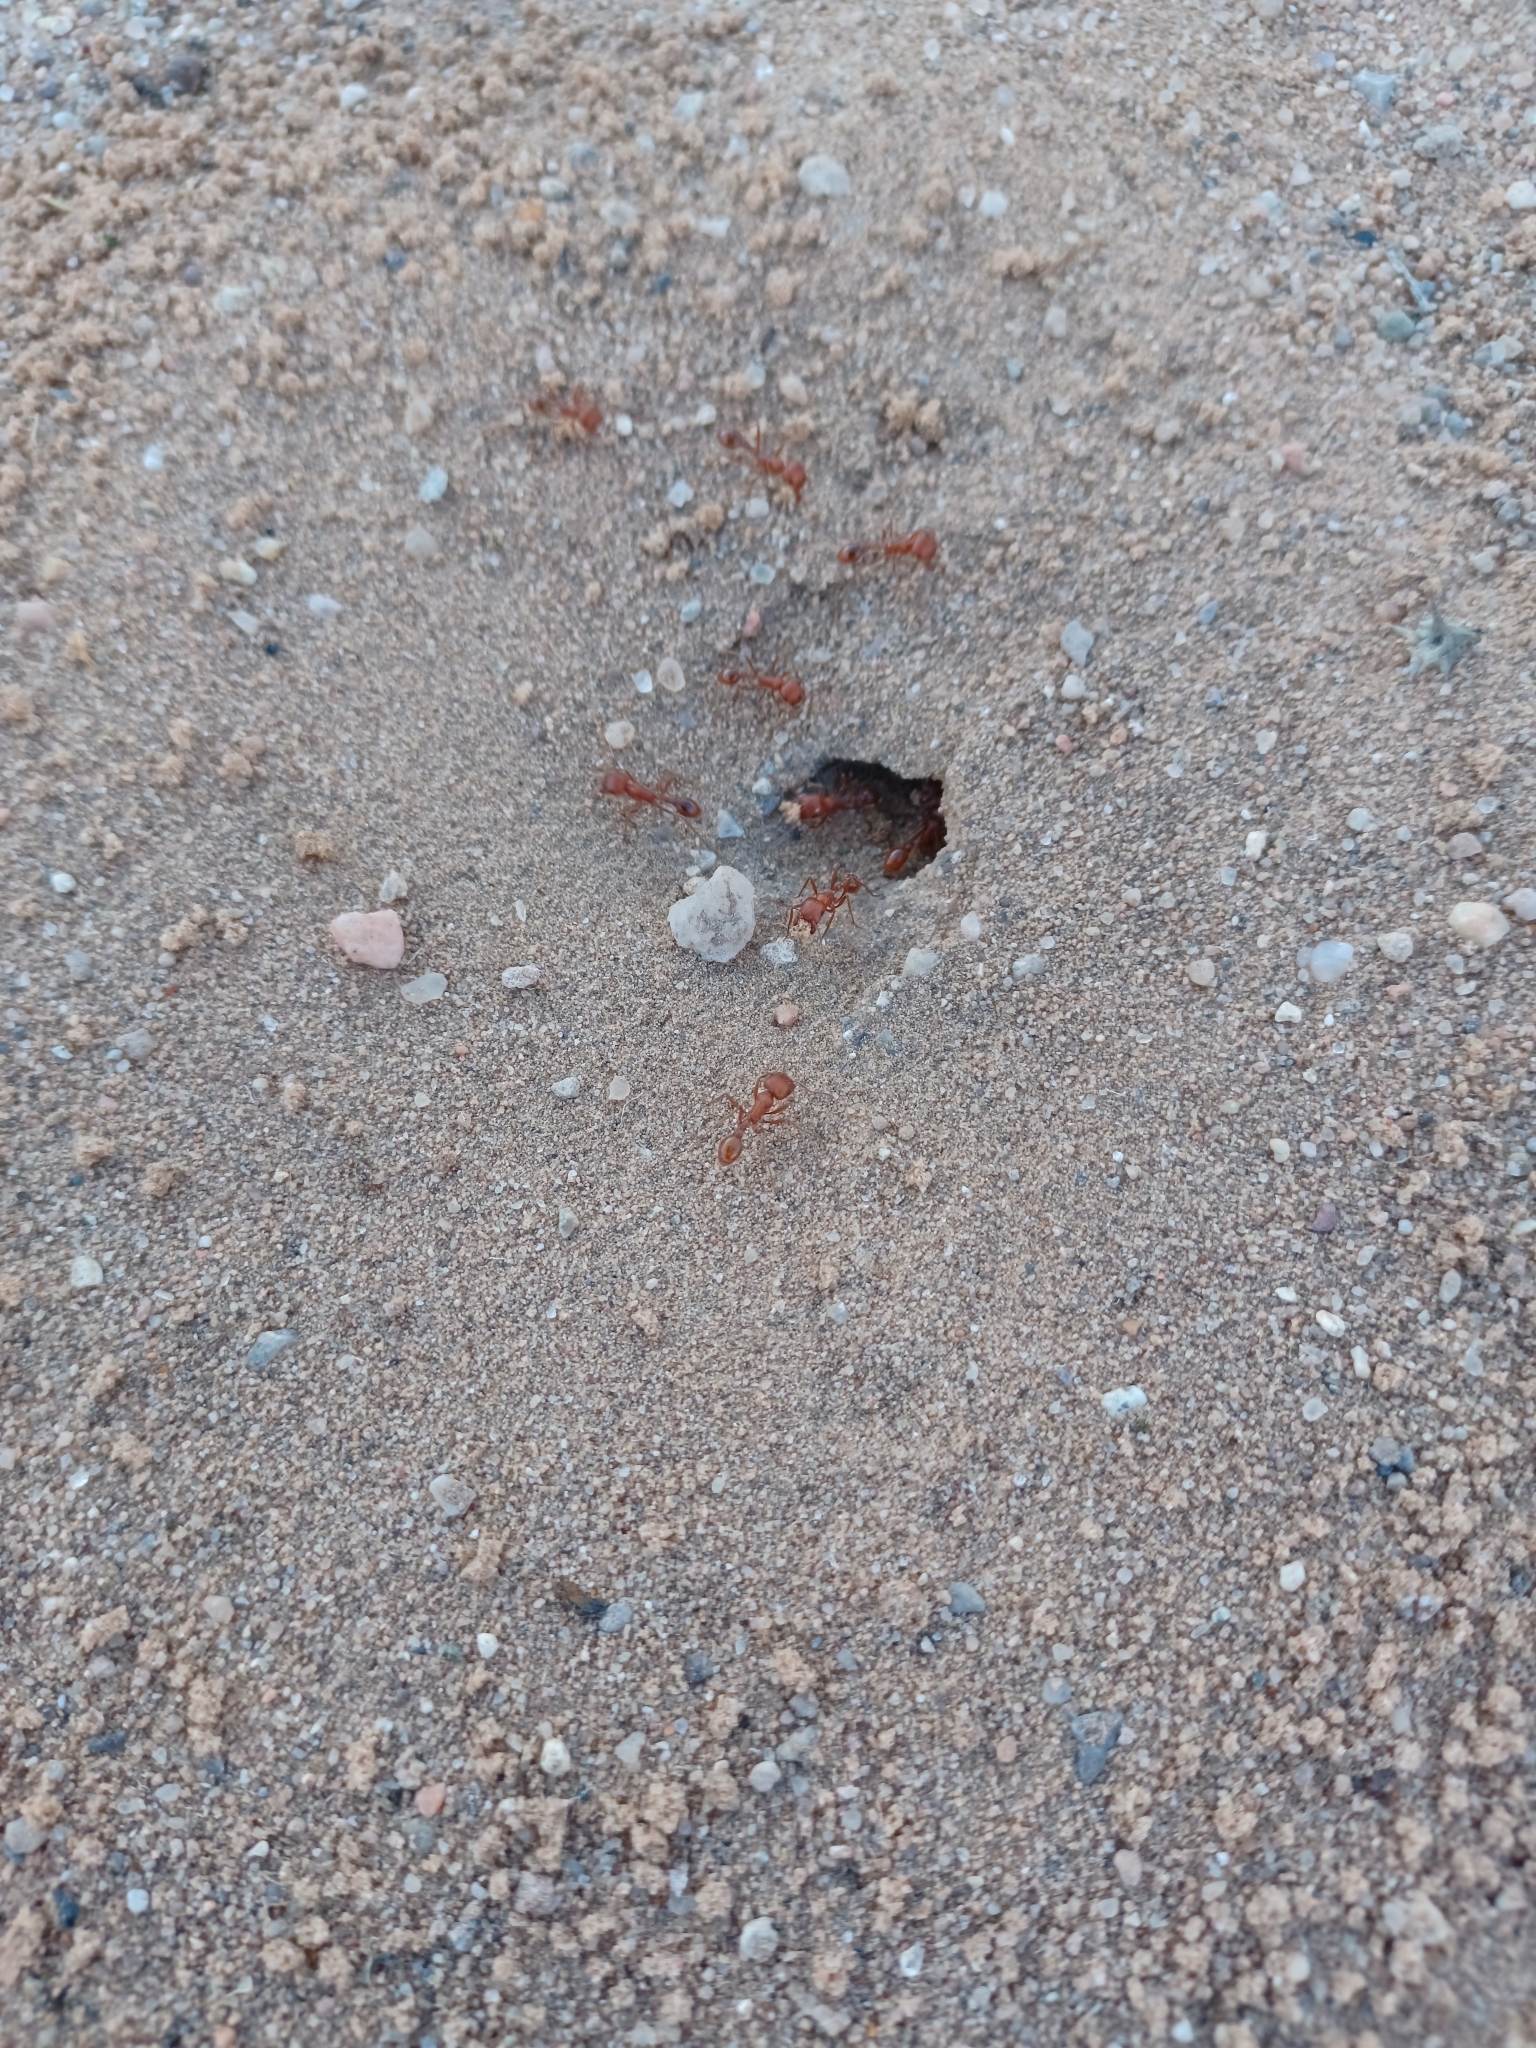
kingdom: Animalia
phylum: Arthropoda
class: Insecta
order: Hymenoptera
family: Formicidae
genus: Pogonomyrmex
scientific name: Pogonomyrmex
